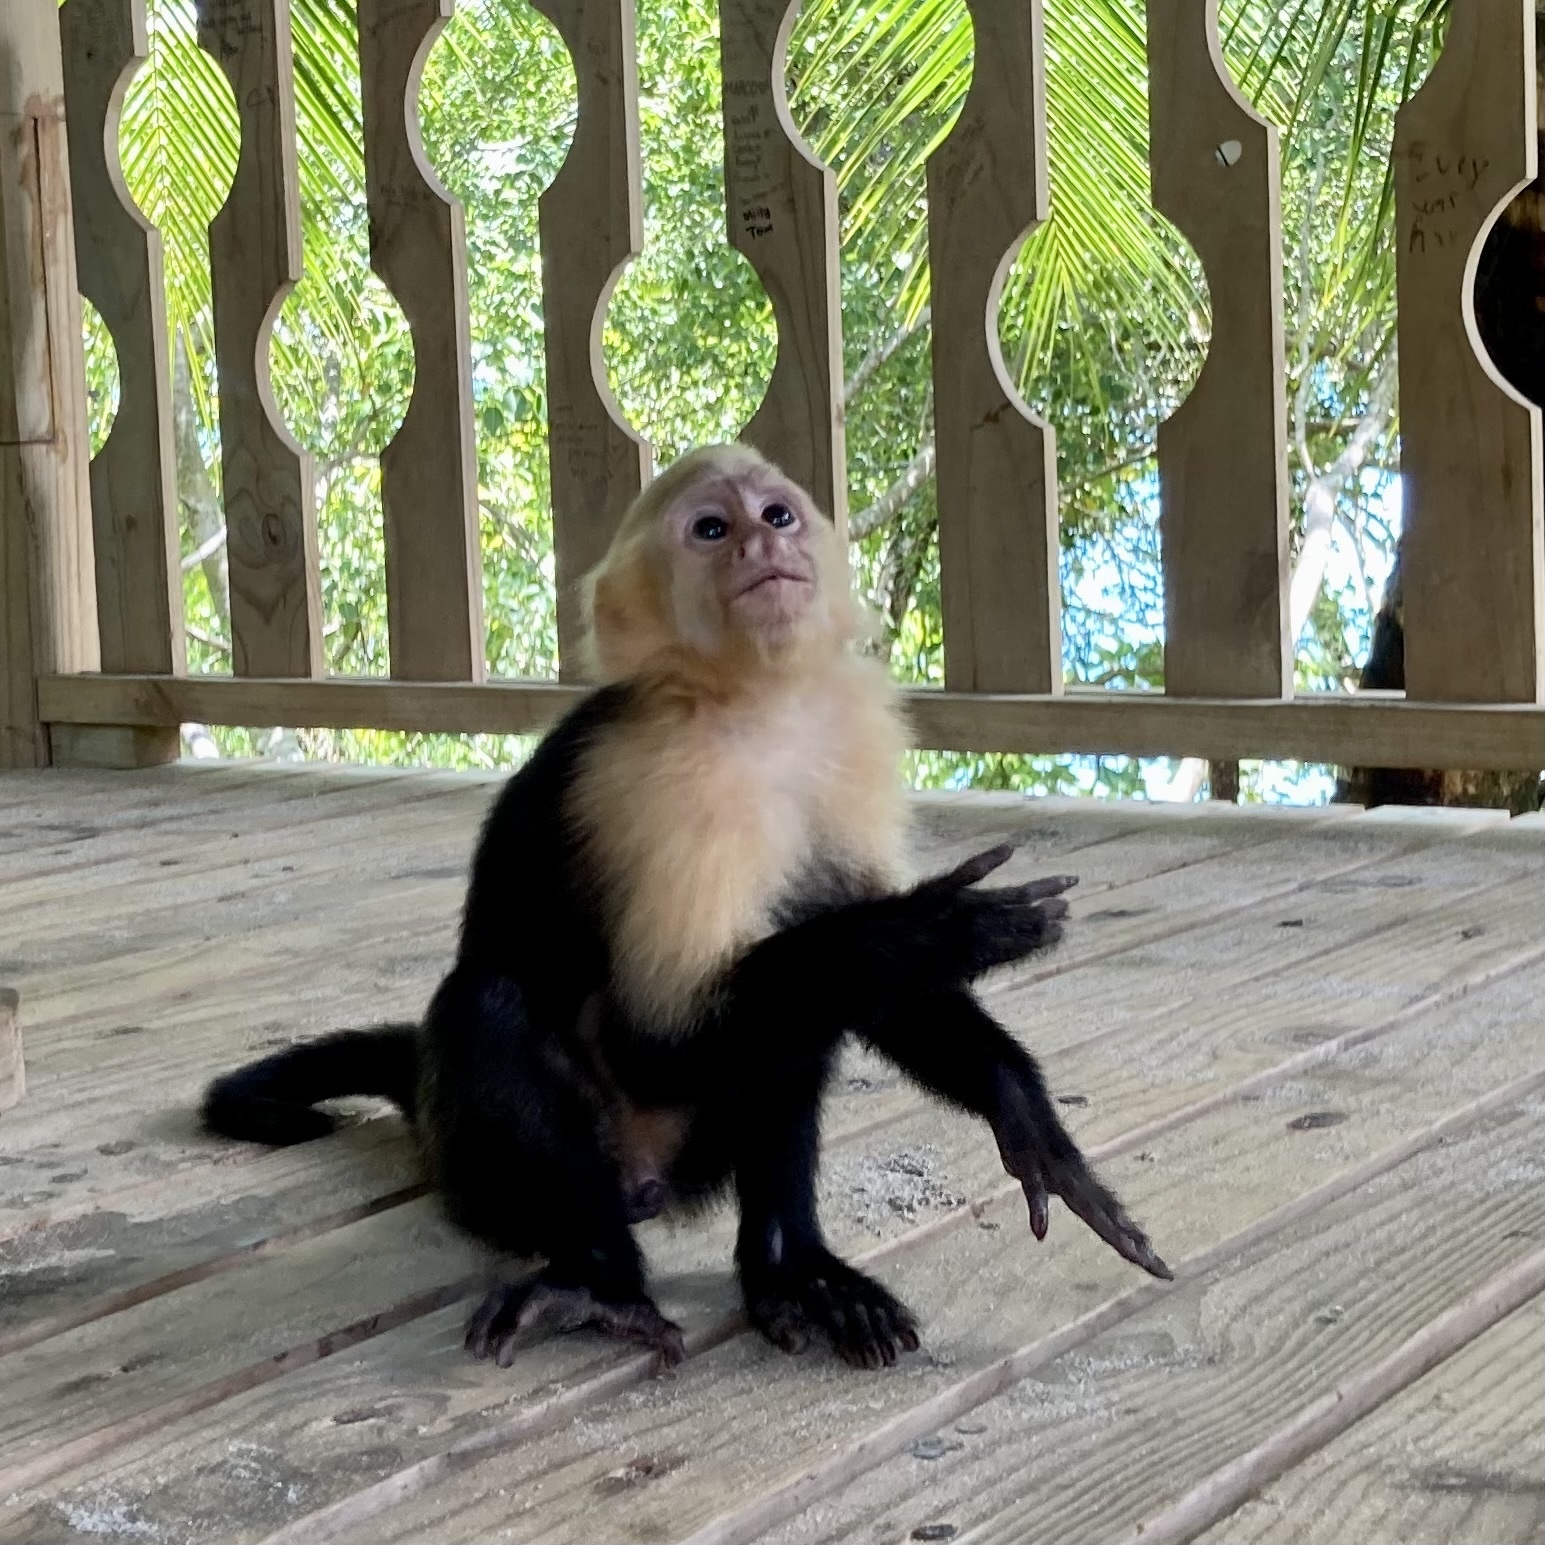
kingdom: Animalia
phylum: Chordata
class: Mammalia
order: Primates
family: Cebidae
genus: Cebus
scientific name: Cebus imitator
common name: Panamanian white-faced capuchin
